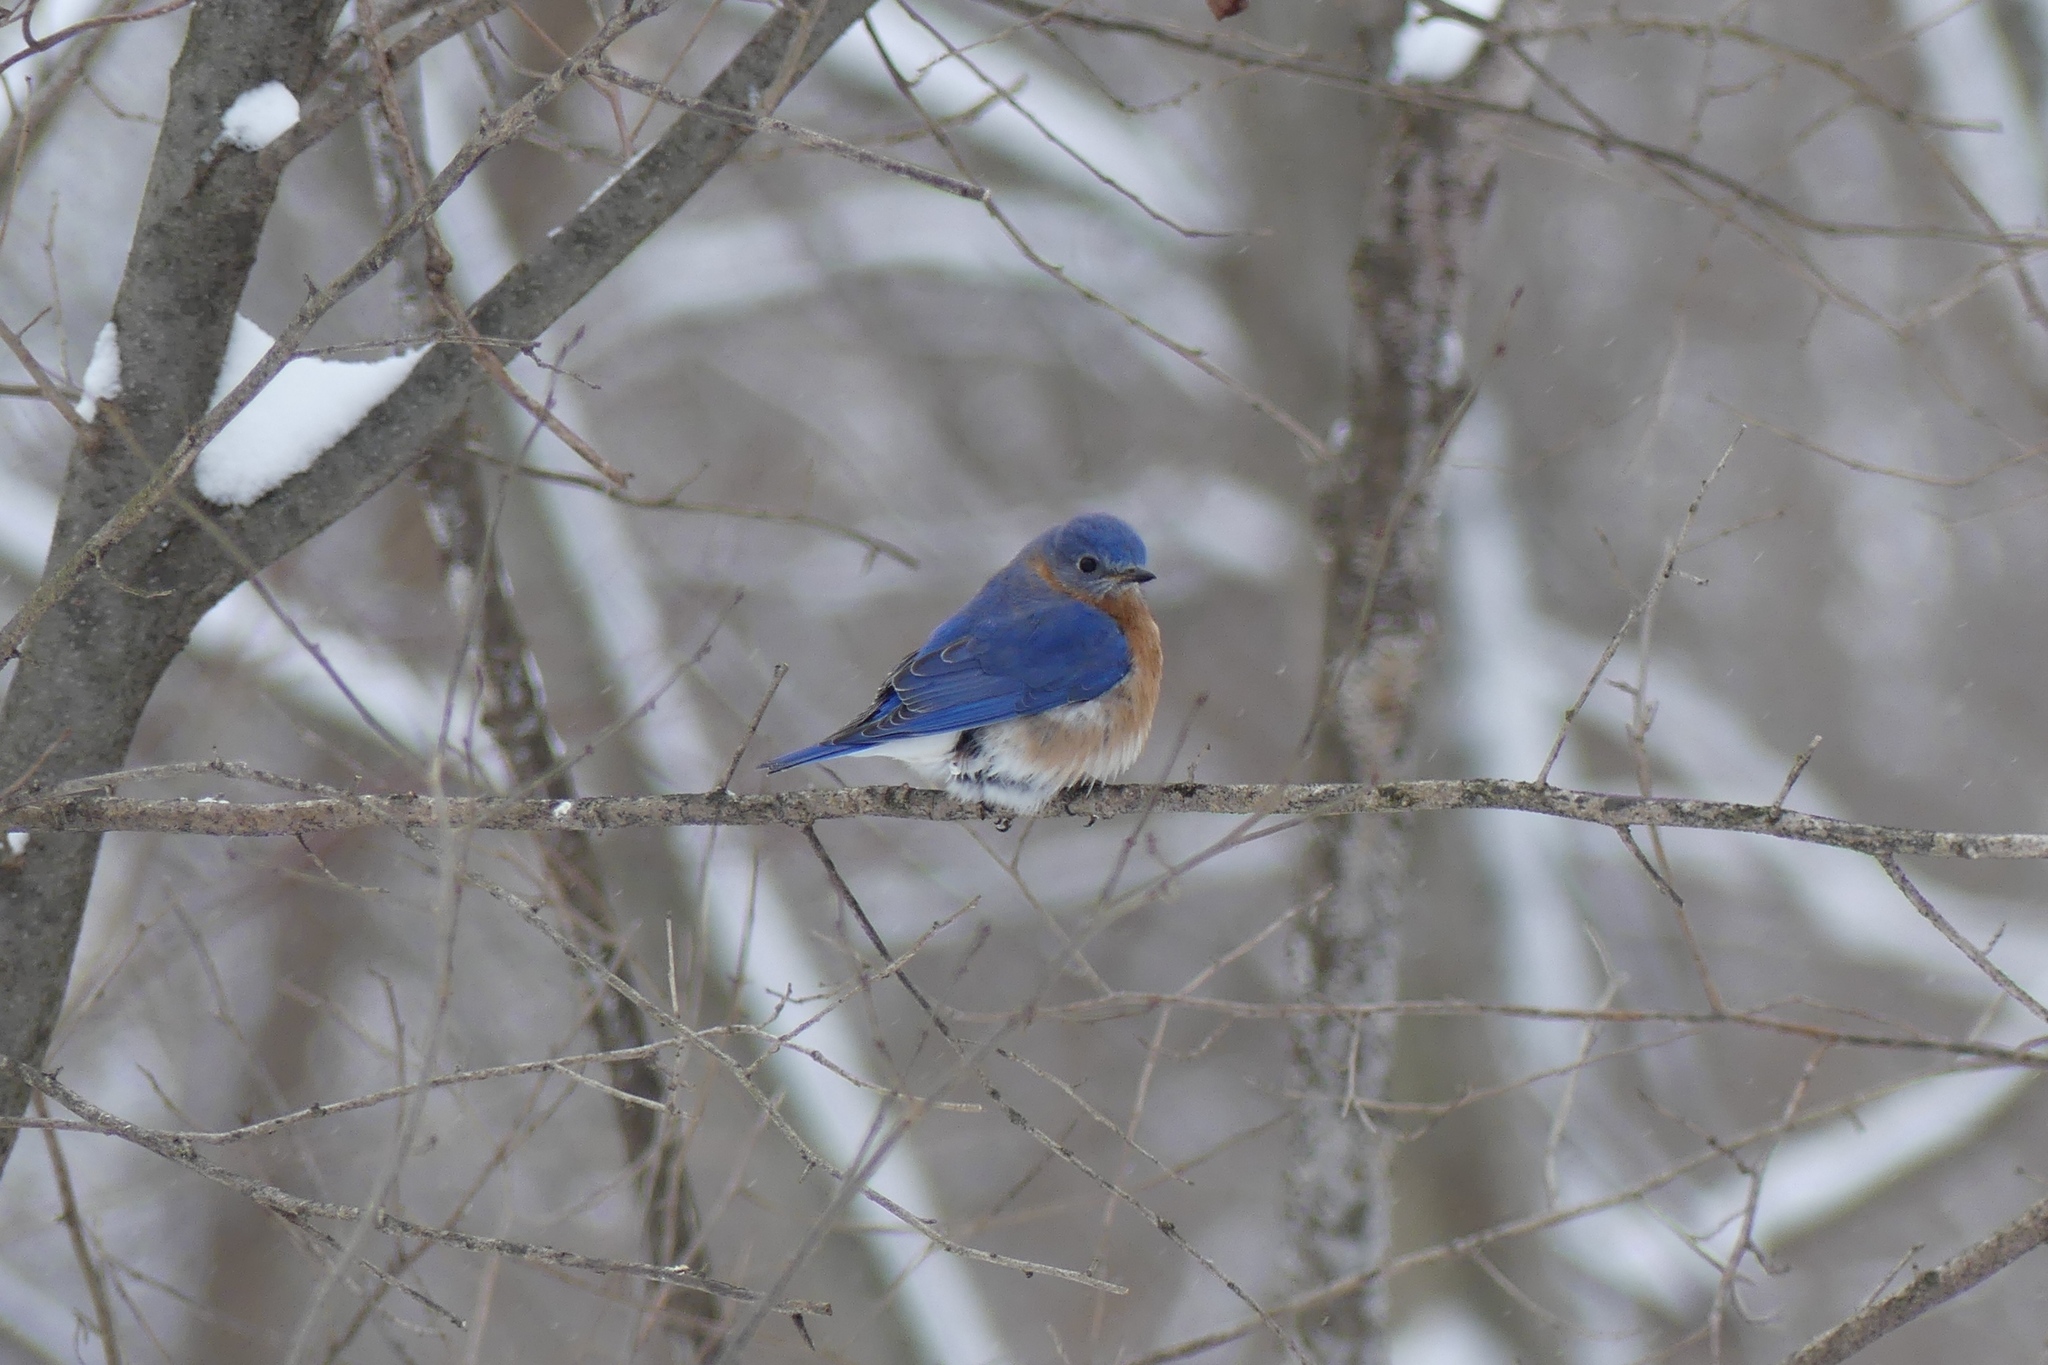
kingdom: Animalia
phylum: Chordata
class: Aves
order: Passeriformes
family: Turdidae
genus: Sialia
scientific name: Sialia sialis
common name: Eastern bluebird
